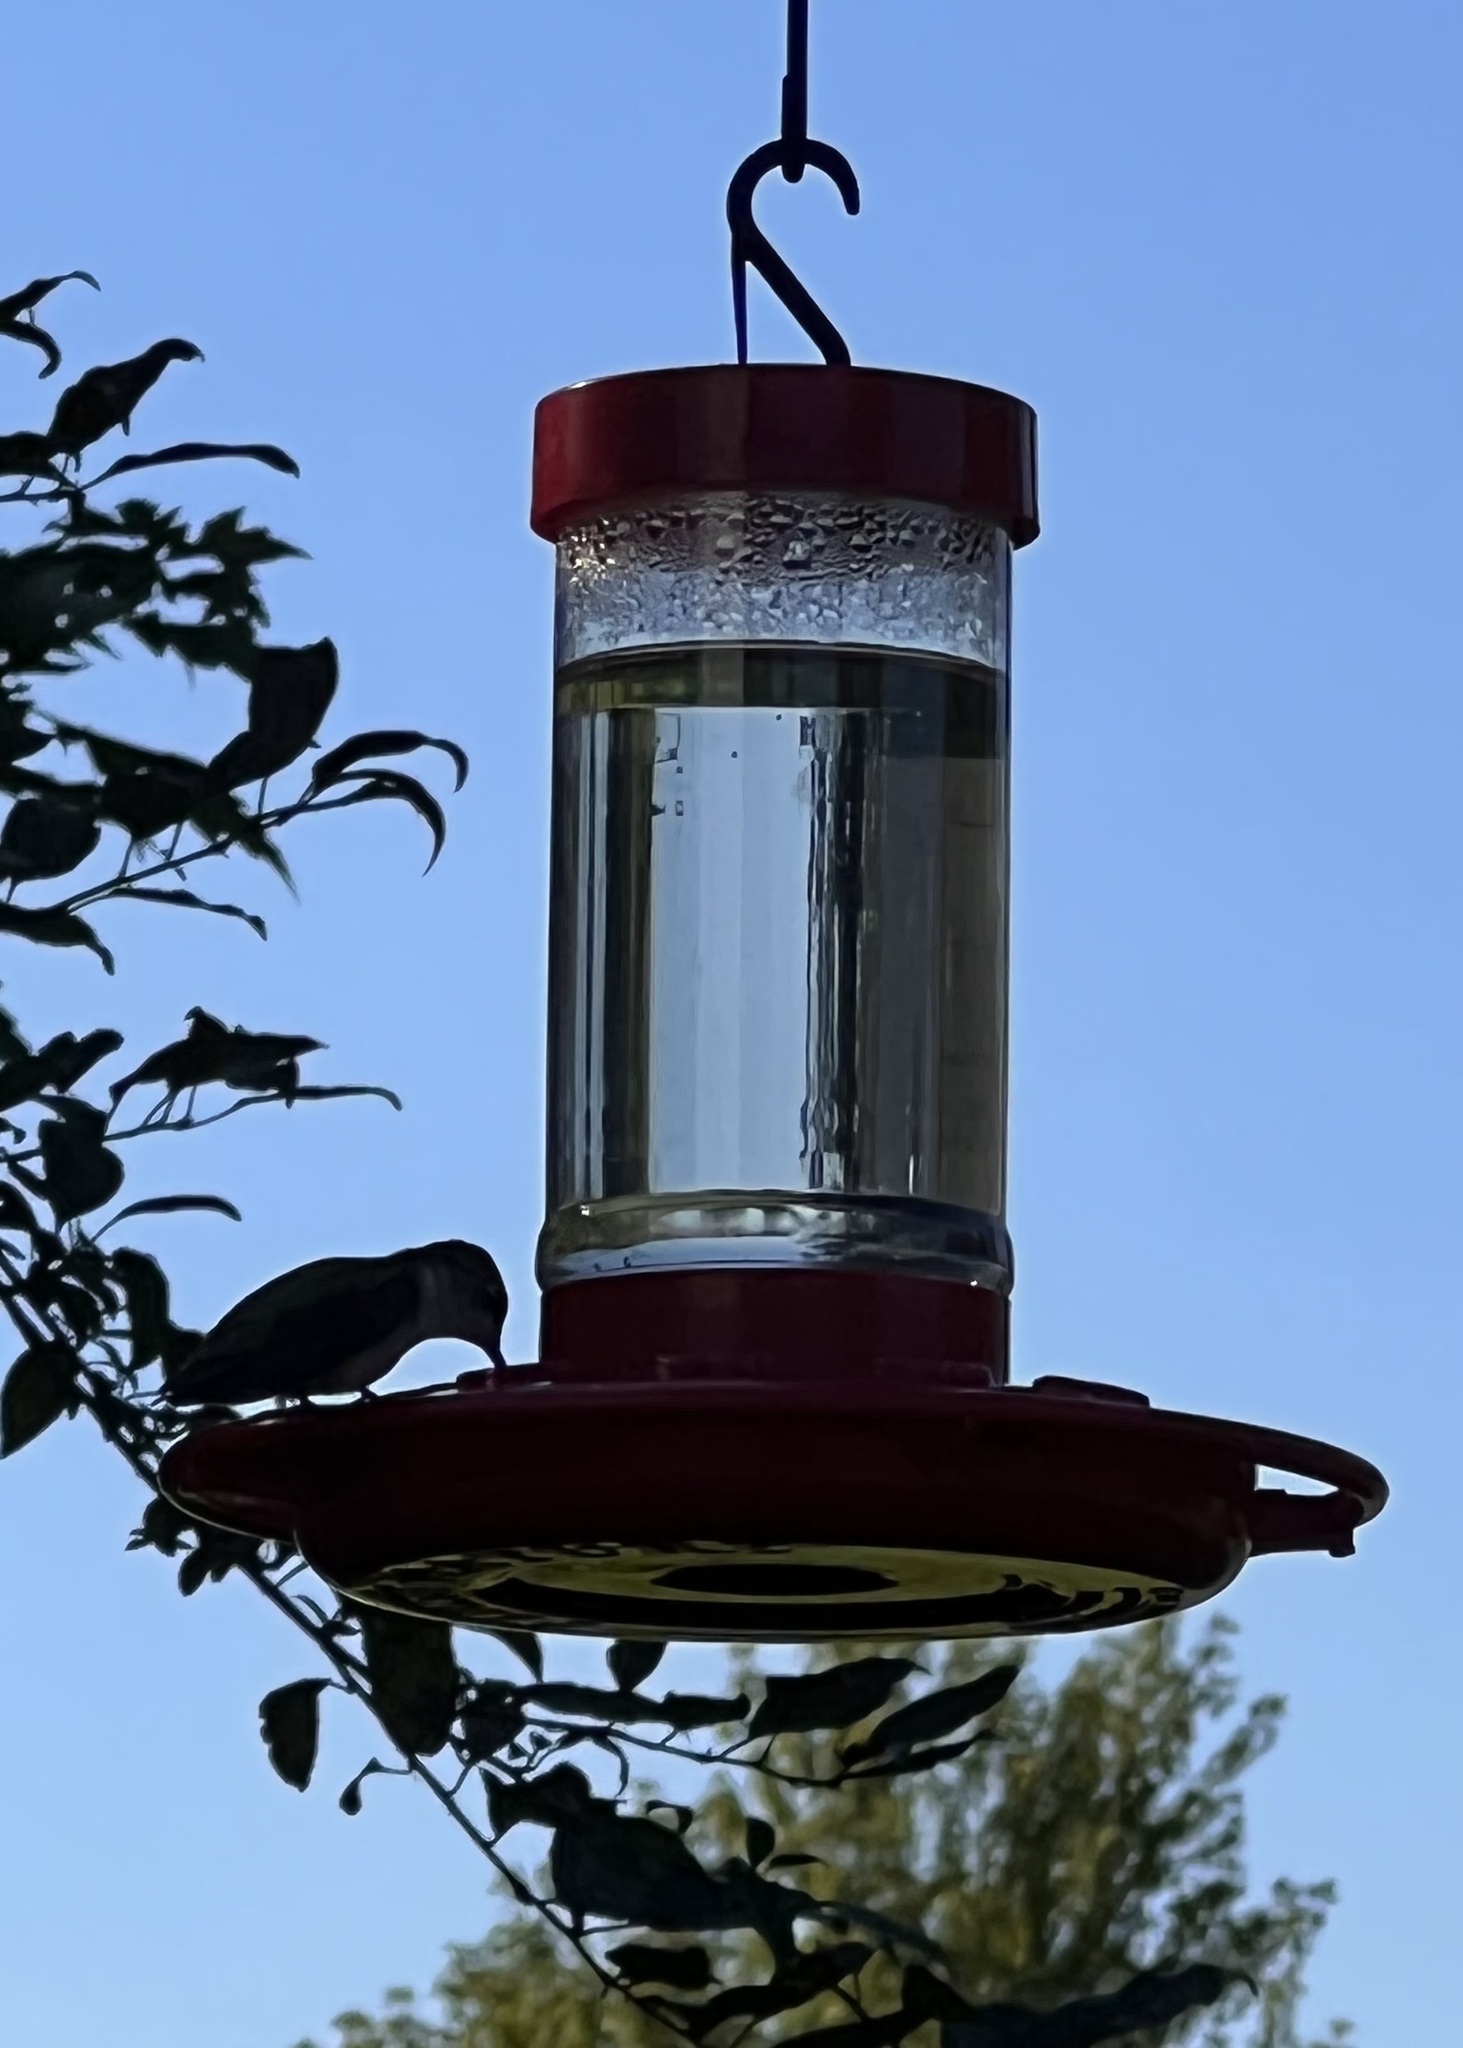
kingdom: Animalia
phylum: Chordata
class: Aves
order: Apodiformes
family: Trochilidae
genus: Archilochus
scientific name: Archilochus colubris
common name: Ruby-throated hummingbird
